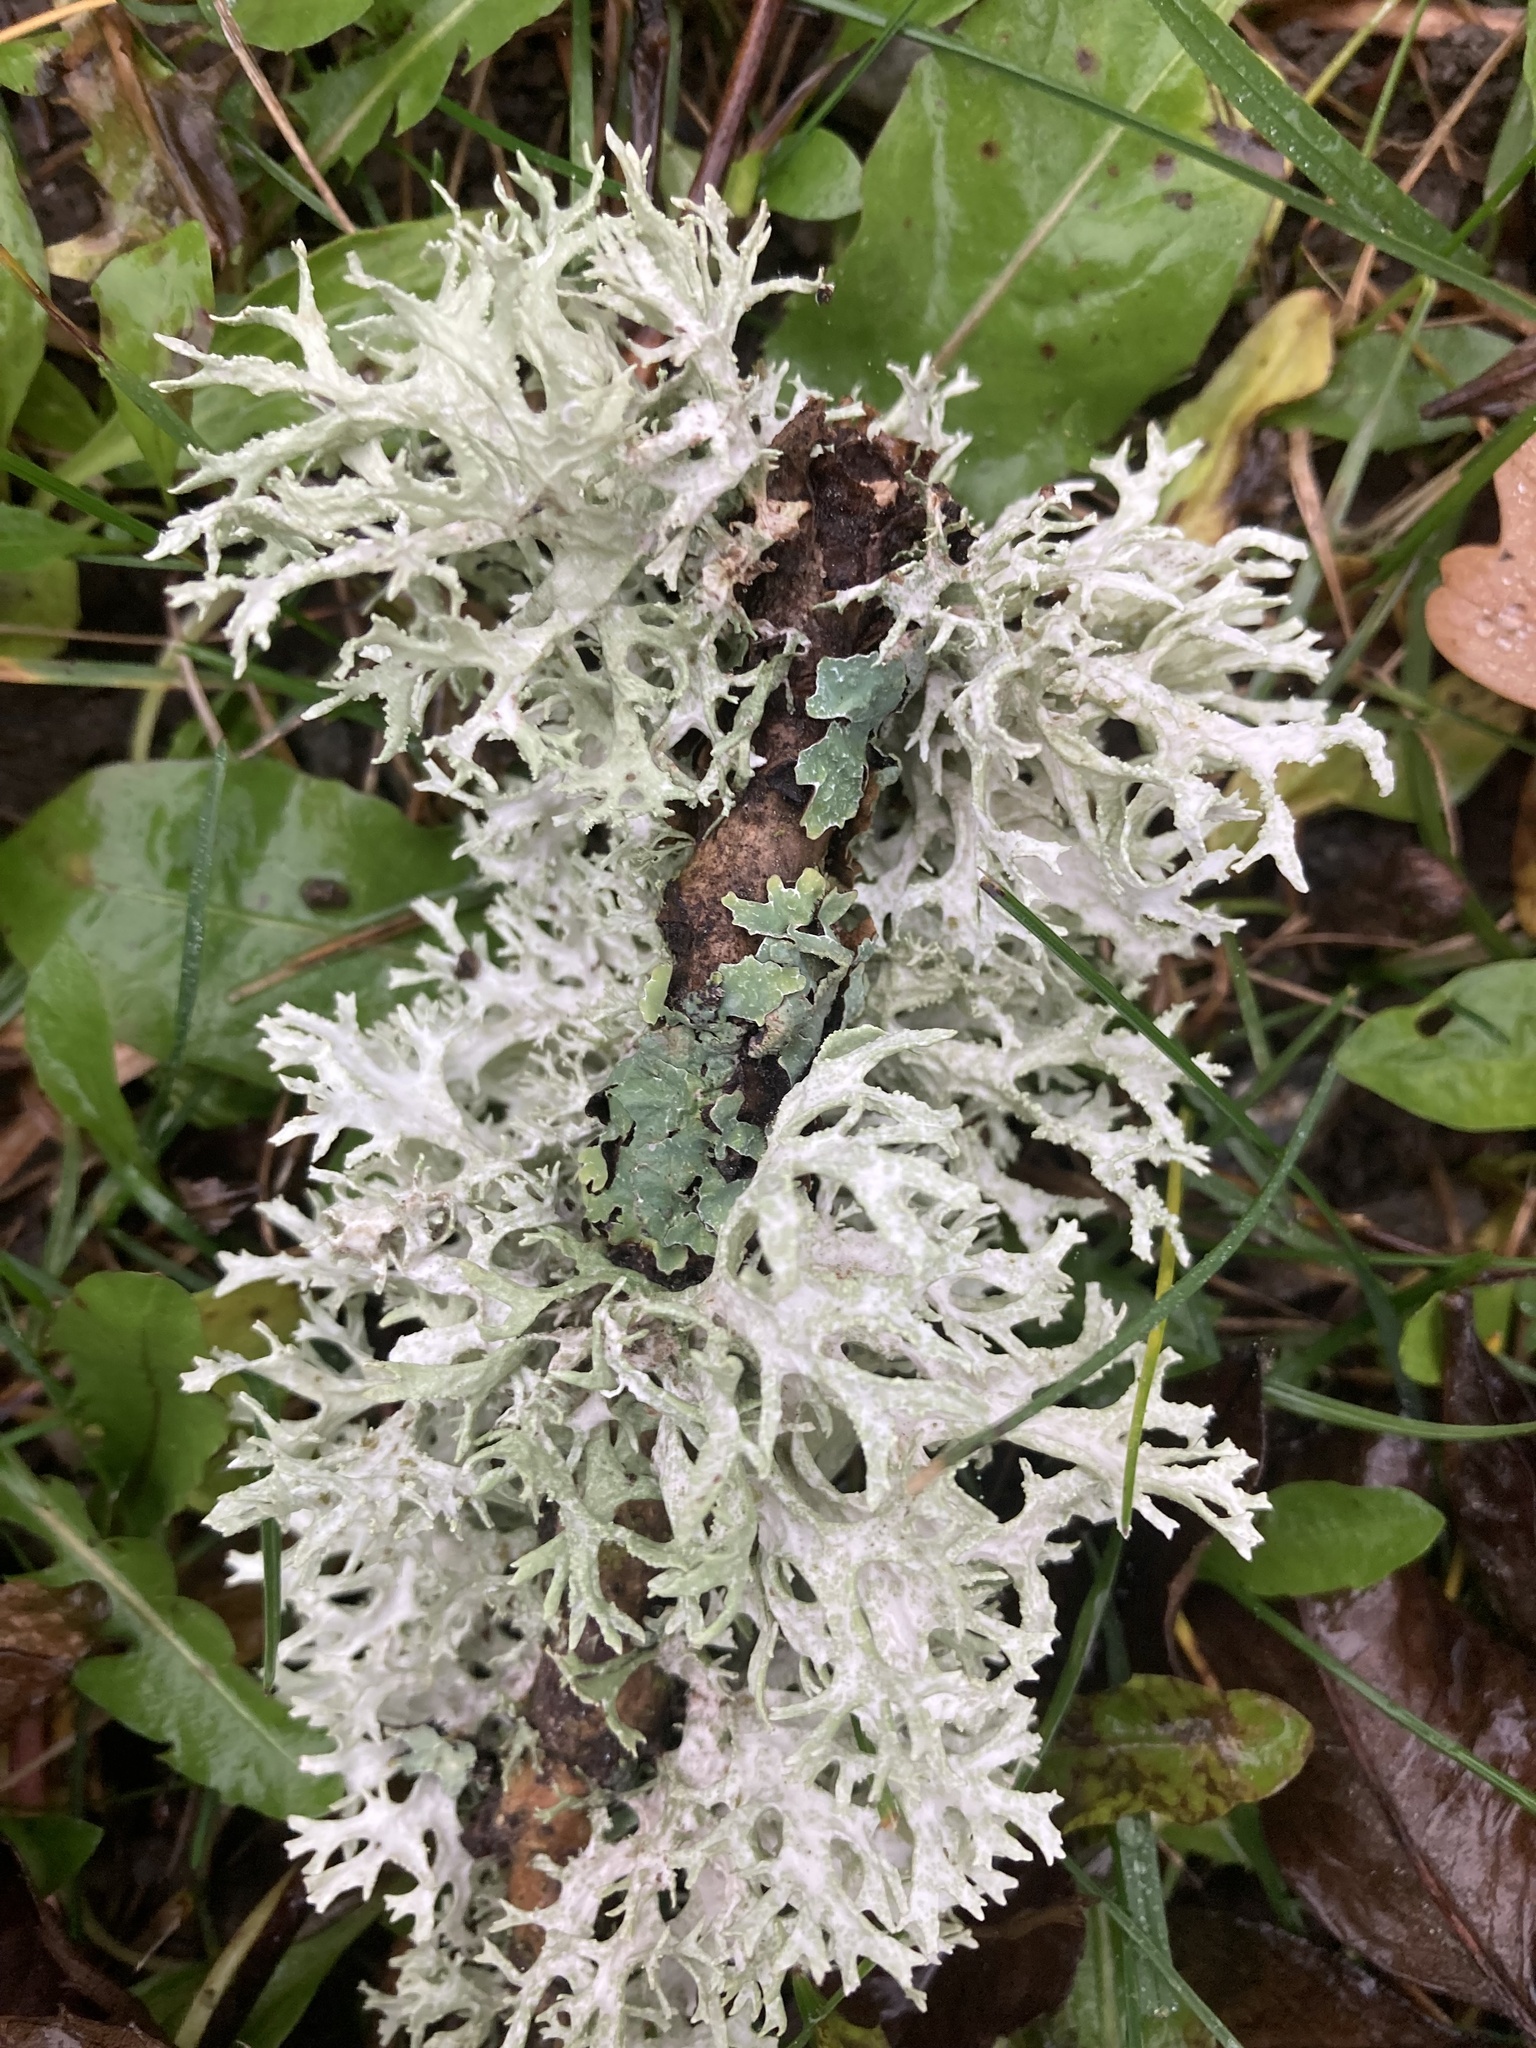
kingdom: Fungi
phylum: Ascomycota
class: Lecanoromycetes
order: Lecanorales
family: Parmeliaceae
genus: Evernia
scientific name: Evernia prunastri
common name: Oak moss
